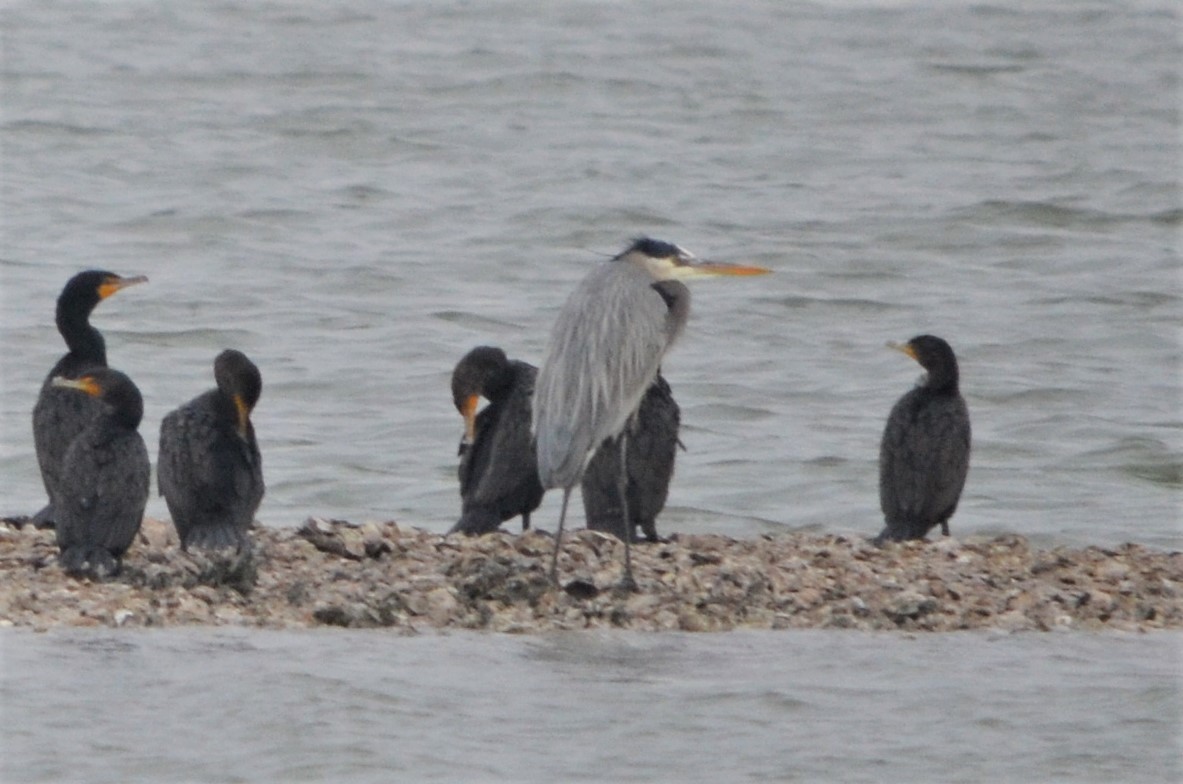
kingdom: Animalia
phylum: Chordata
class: Aves
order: Pelecaniformes
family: Ardeidae
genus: Ardea
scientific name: Ardea herodias
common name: Great blue heron
